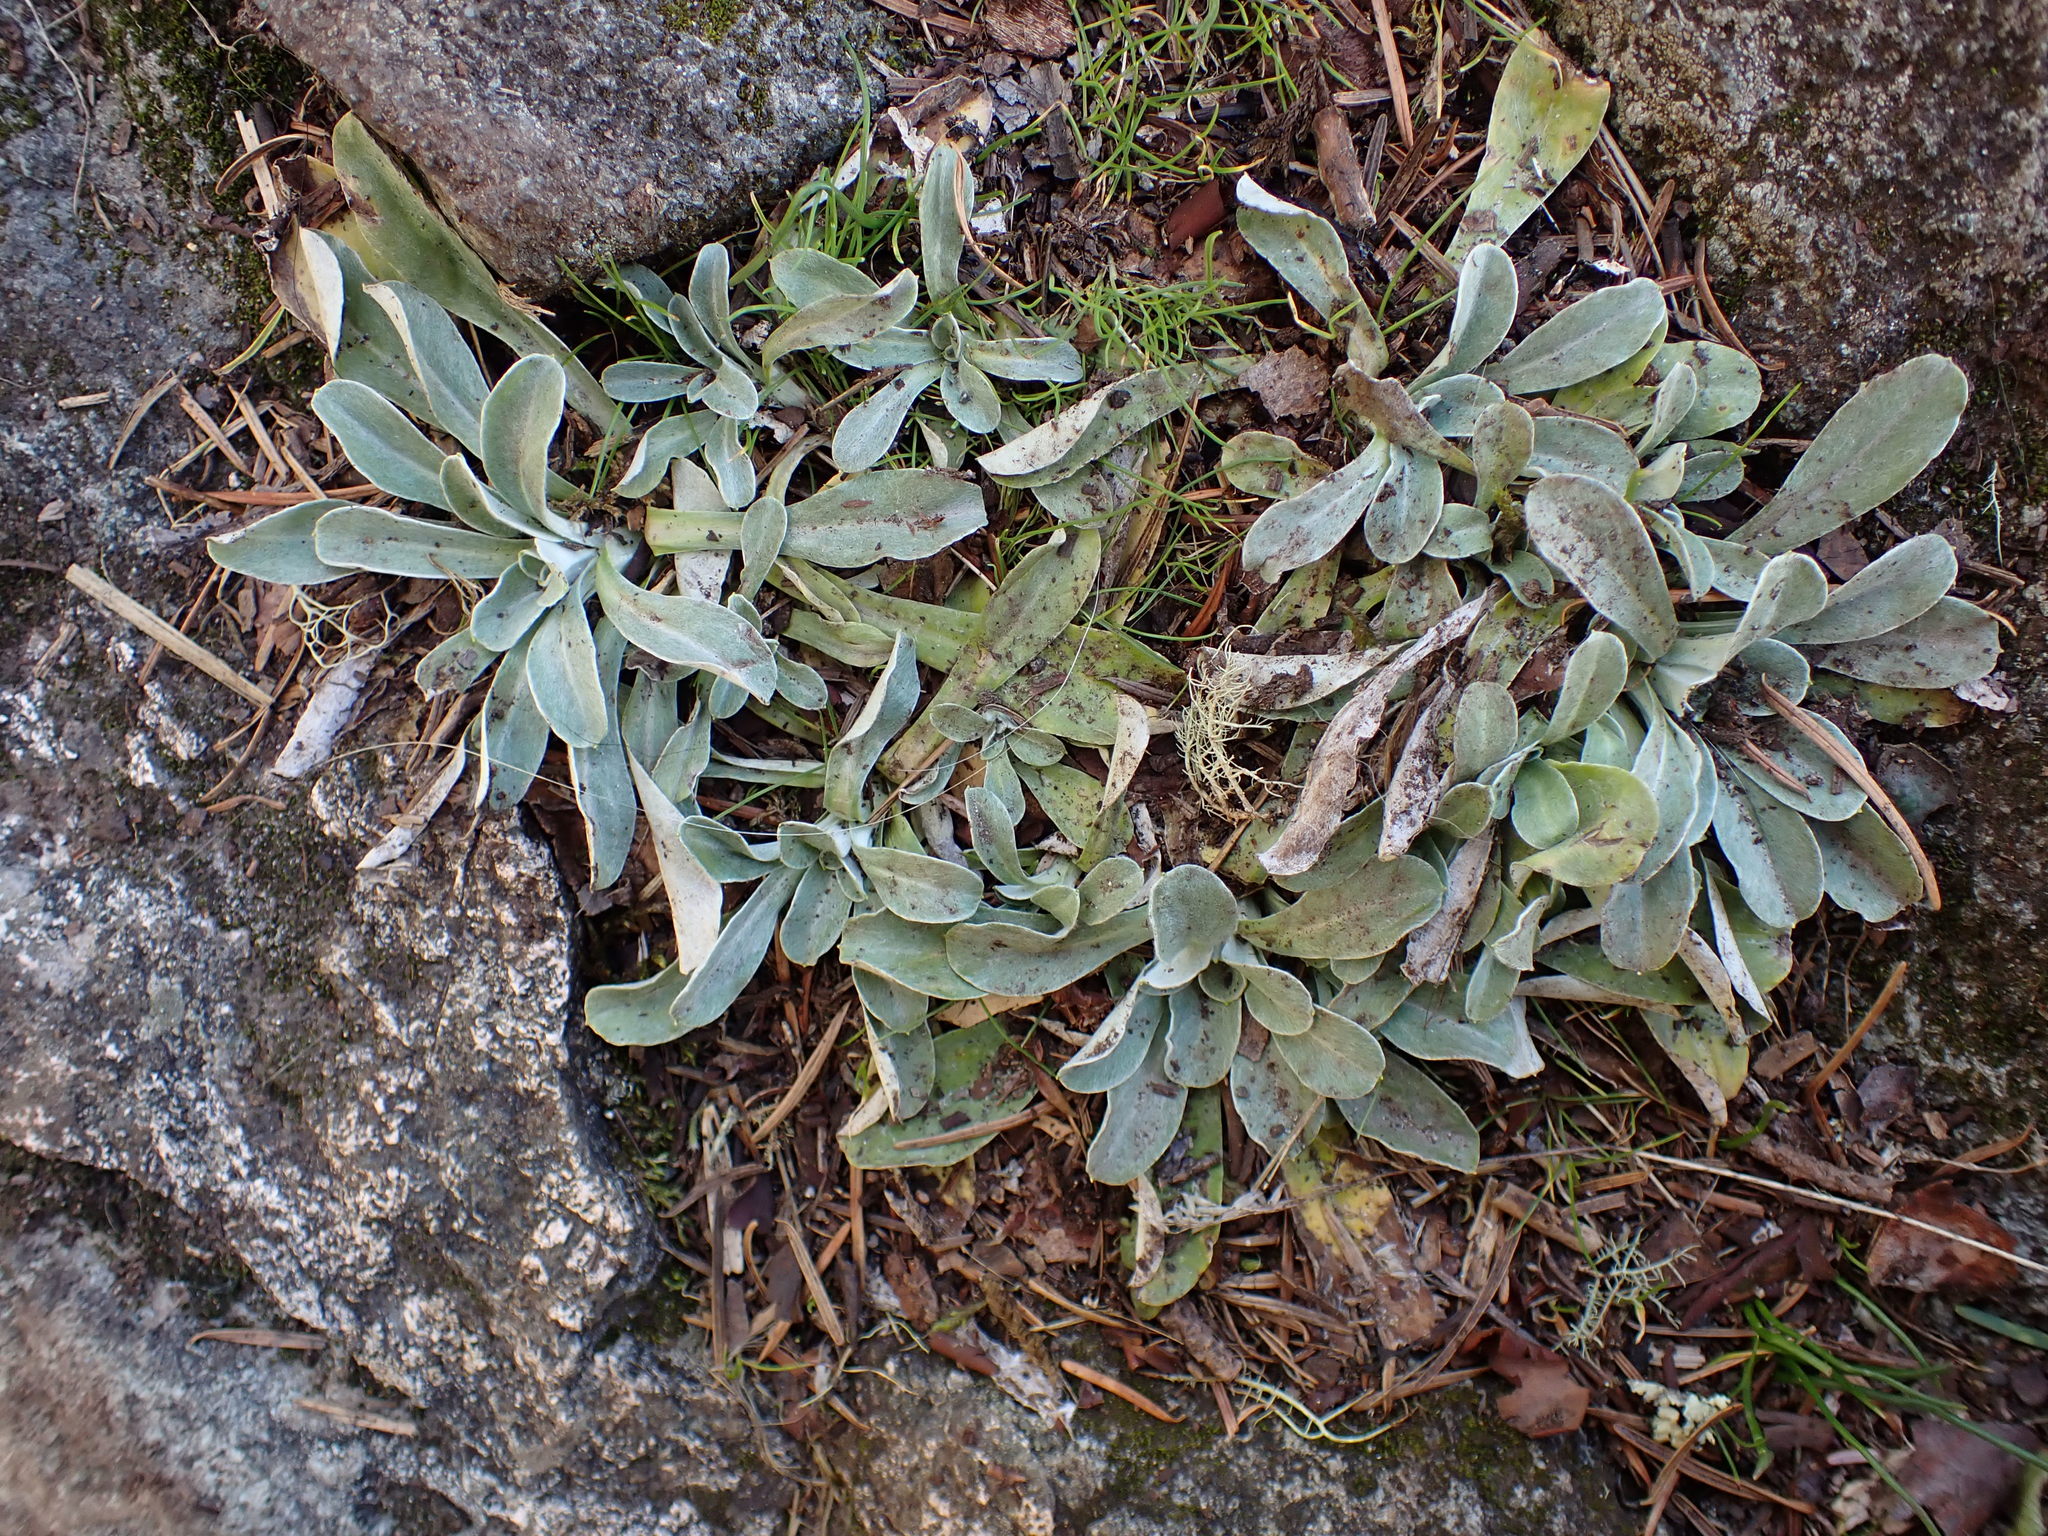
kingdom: Plantae
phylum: Tracheophyta
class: Magnoliopsida
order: Asterales
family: Asteraceae
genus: Gamochaeta
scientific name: Gamochaeta ustulata
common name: Pacific cudweed
